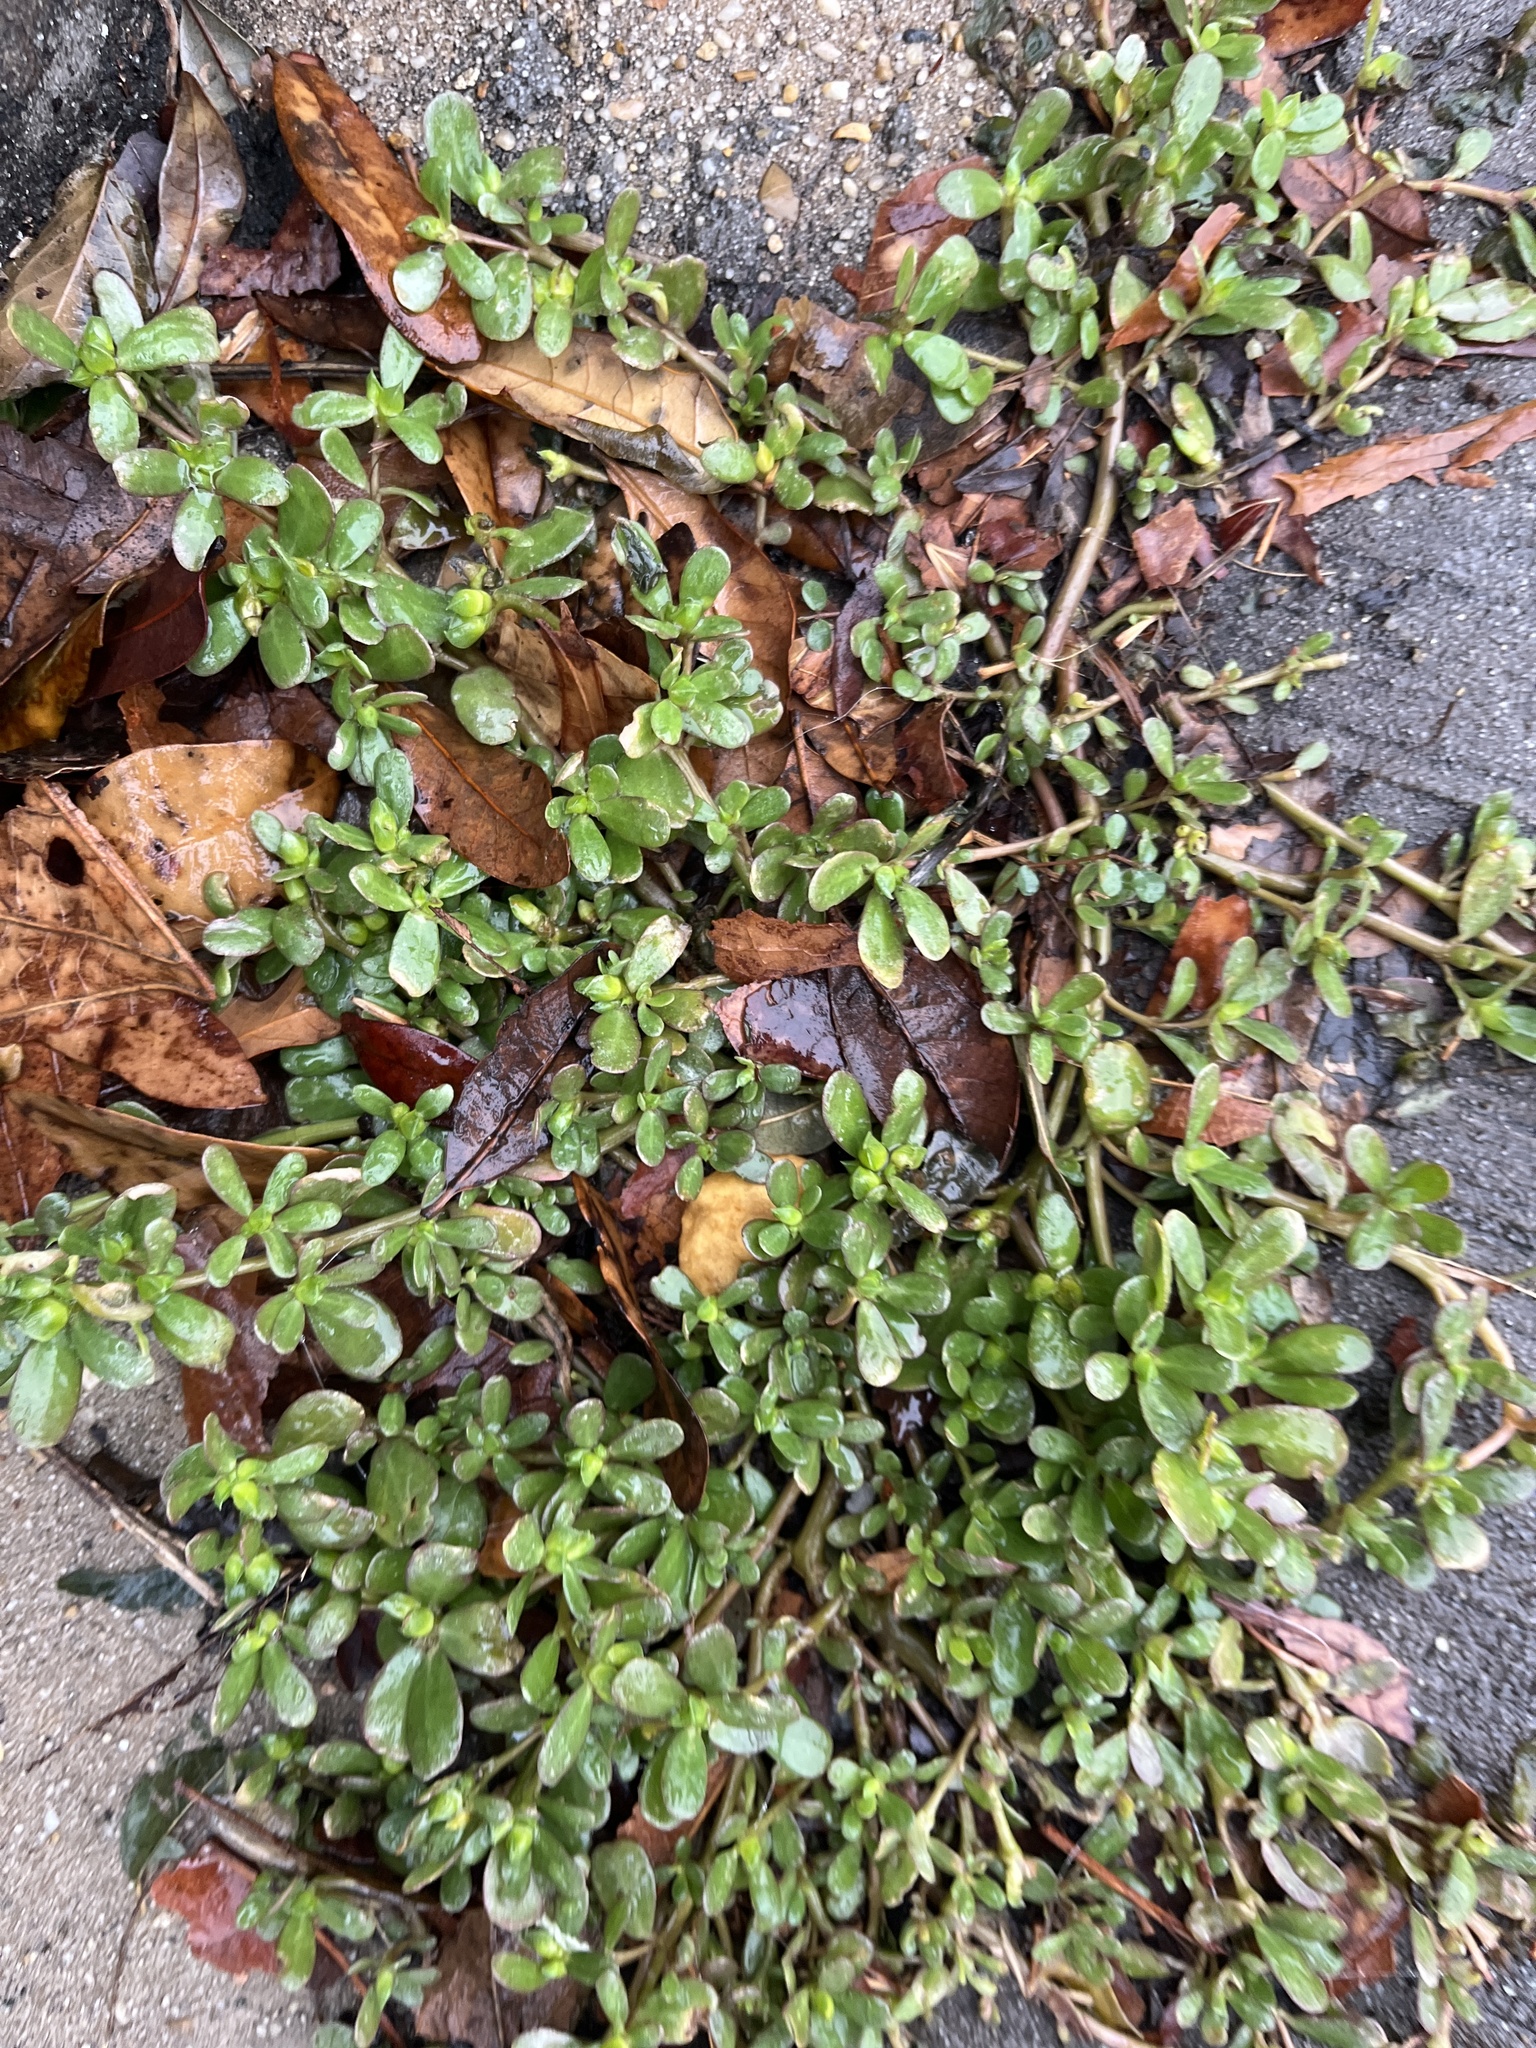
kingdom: Plantae
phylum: Tracheophyta
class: Magnoliopsida
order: Caryophyllales
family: Portulacaceae
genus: Portulaca
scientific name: Portulaca oleracea
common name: Common purslane
